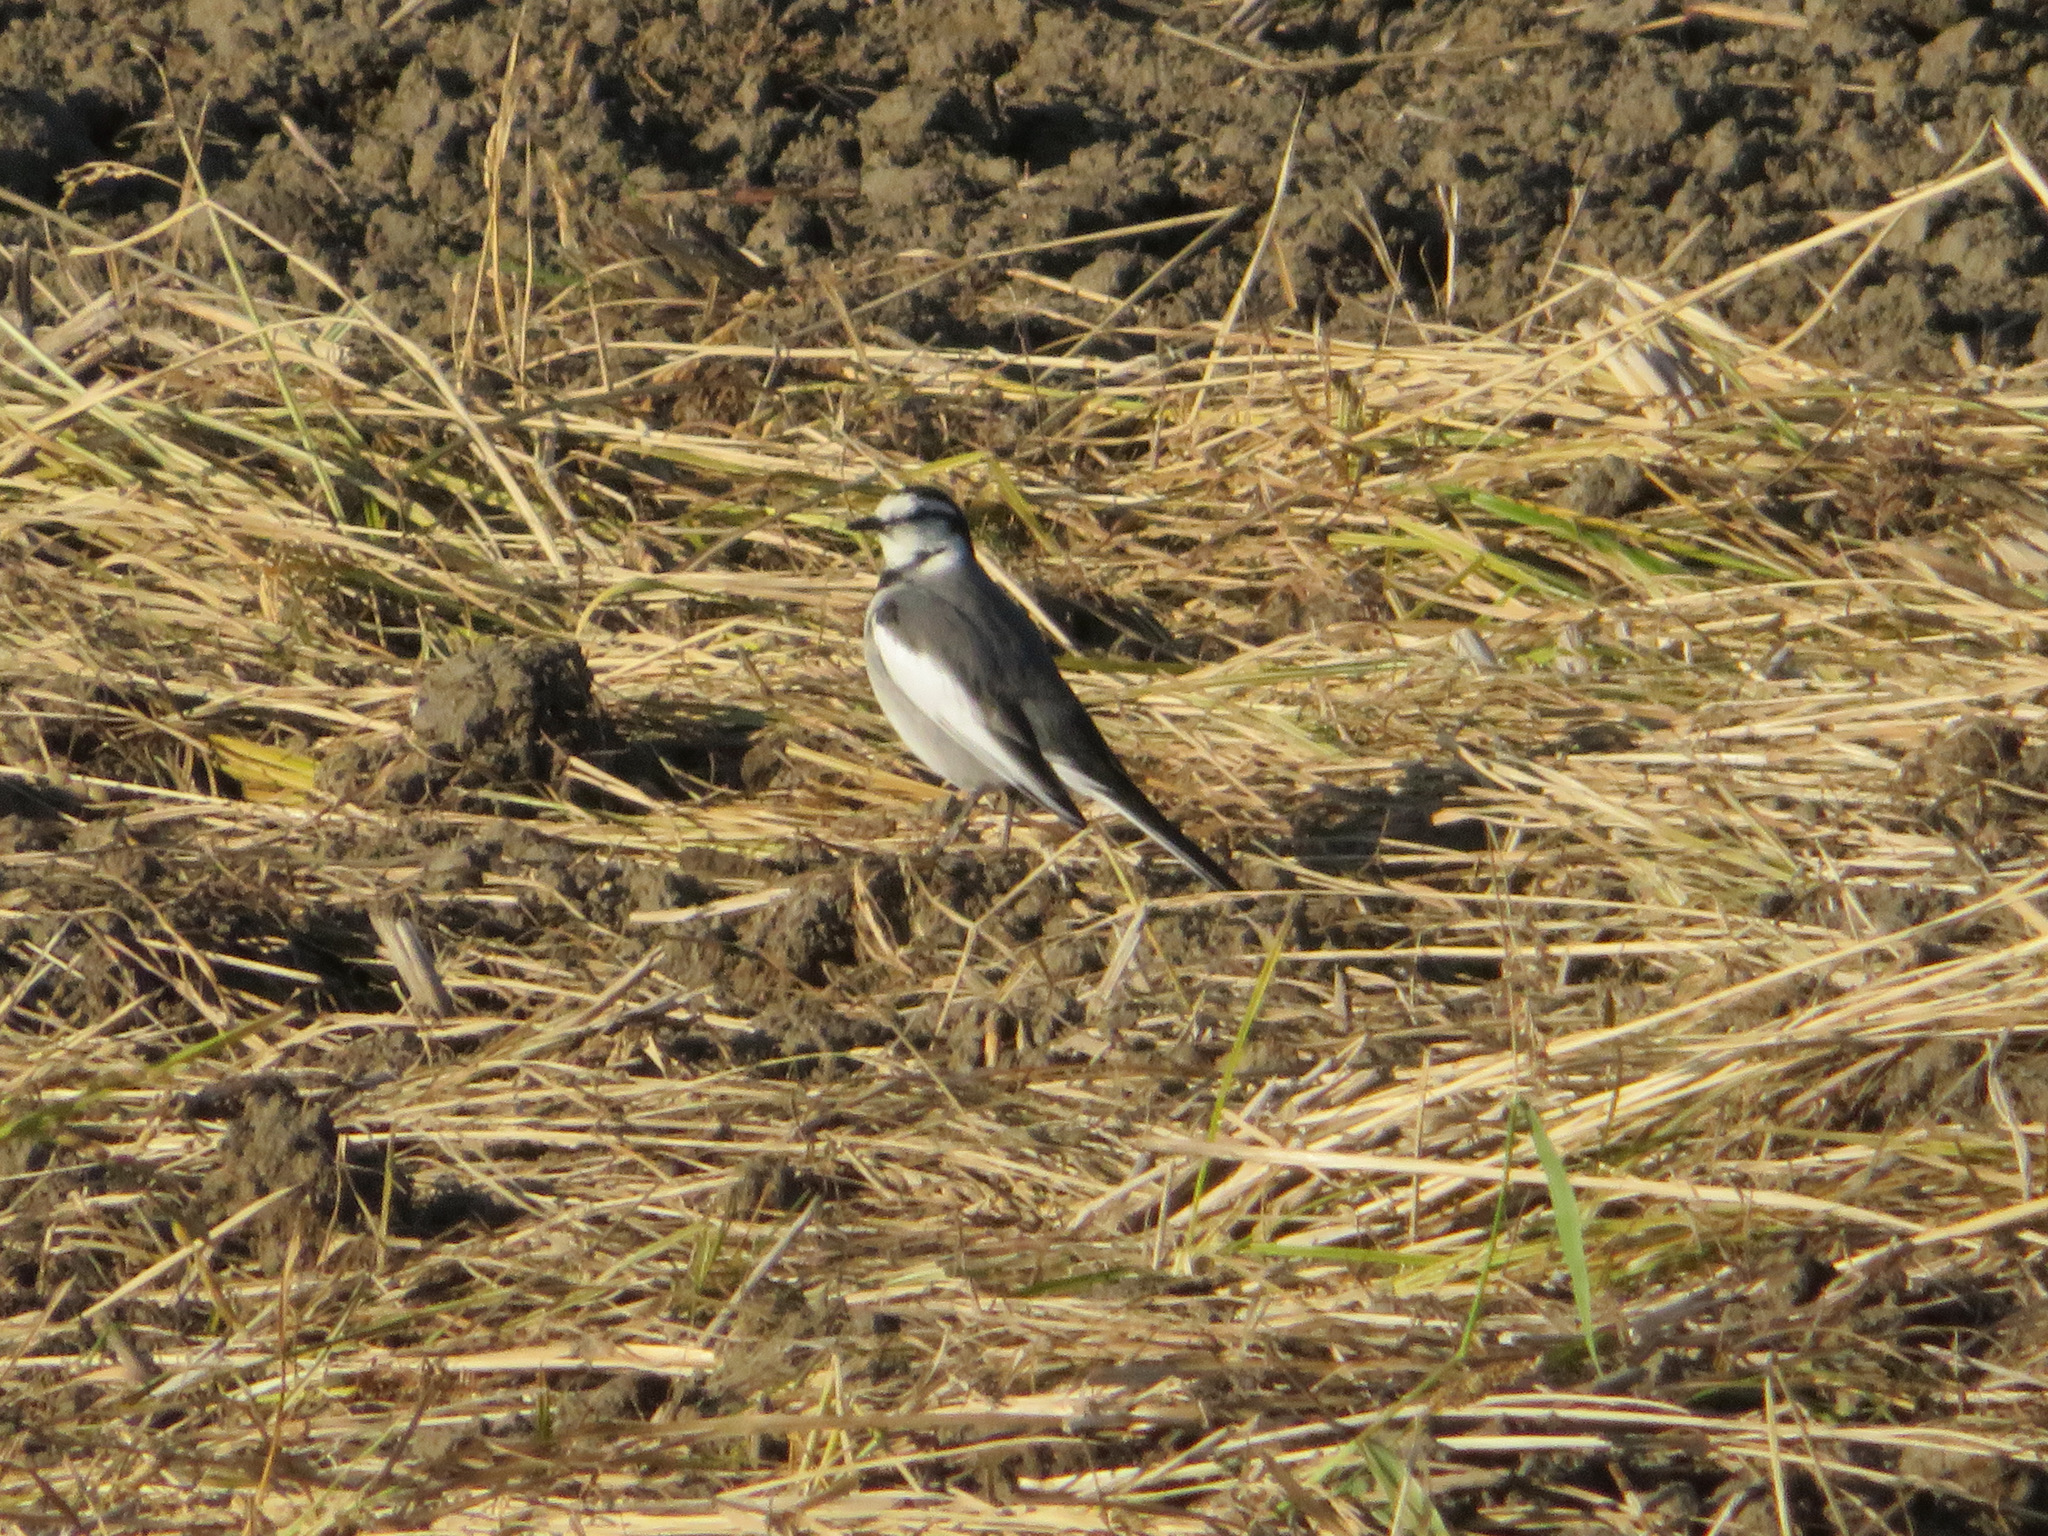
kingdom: Animalia
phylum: Chordata
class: Aves
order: Passeriformes
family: Motacillidae
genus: Motacilla
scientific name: Motacilla alba
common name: White wagtail
